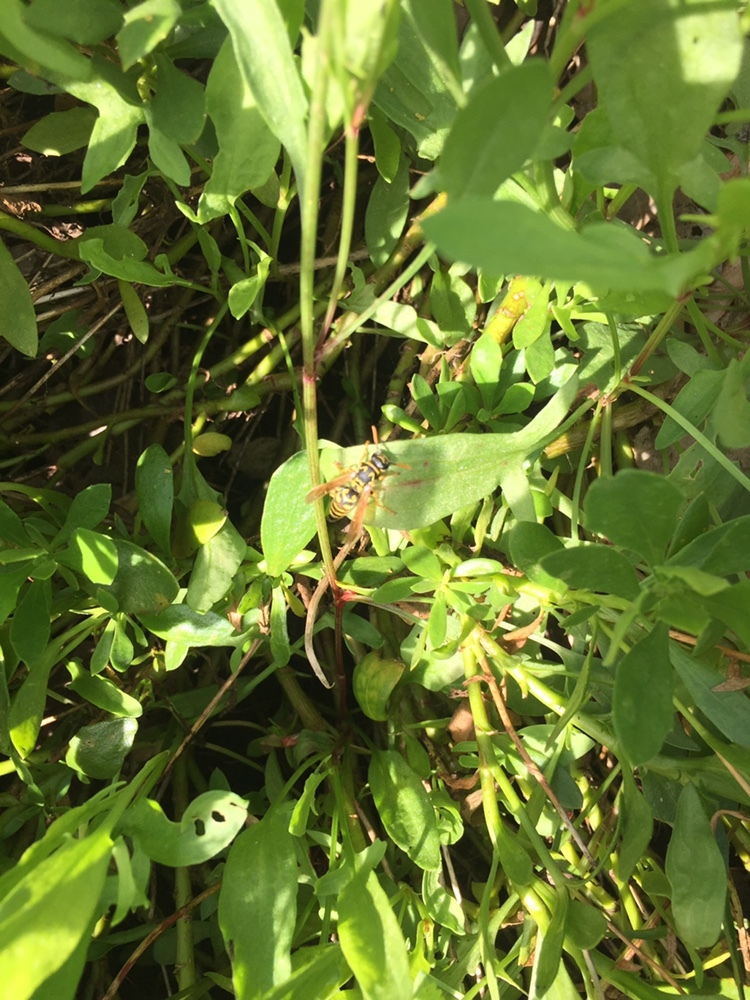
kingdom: Animalia
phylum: Arthropoda
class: Insecta
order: Hymenoptera
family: Eumenidae
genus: Polistes
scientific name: Polistes dominula
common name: Paper wasp
